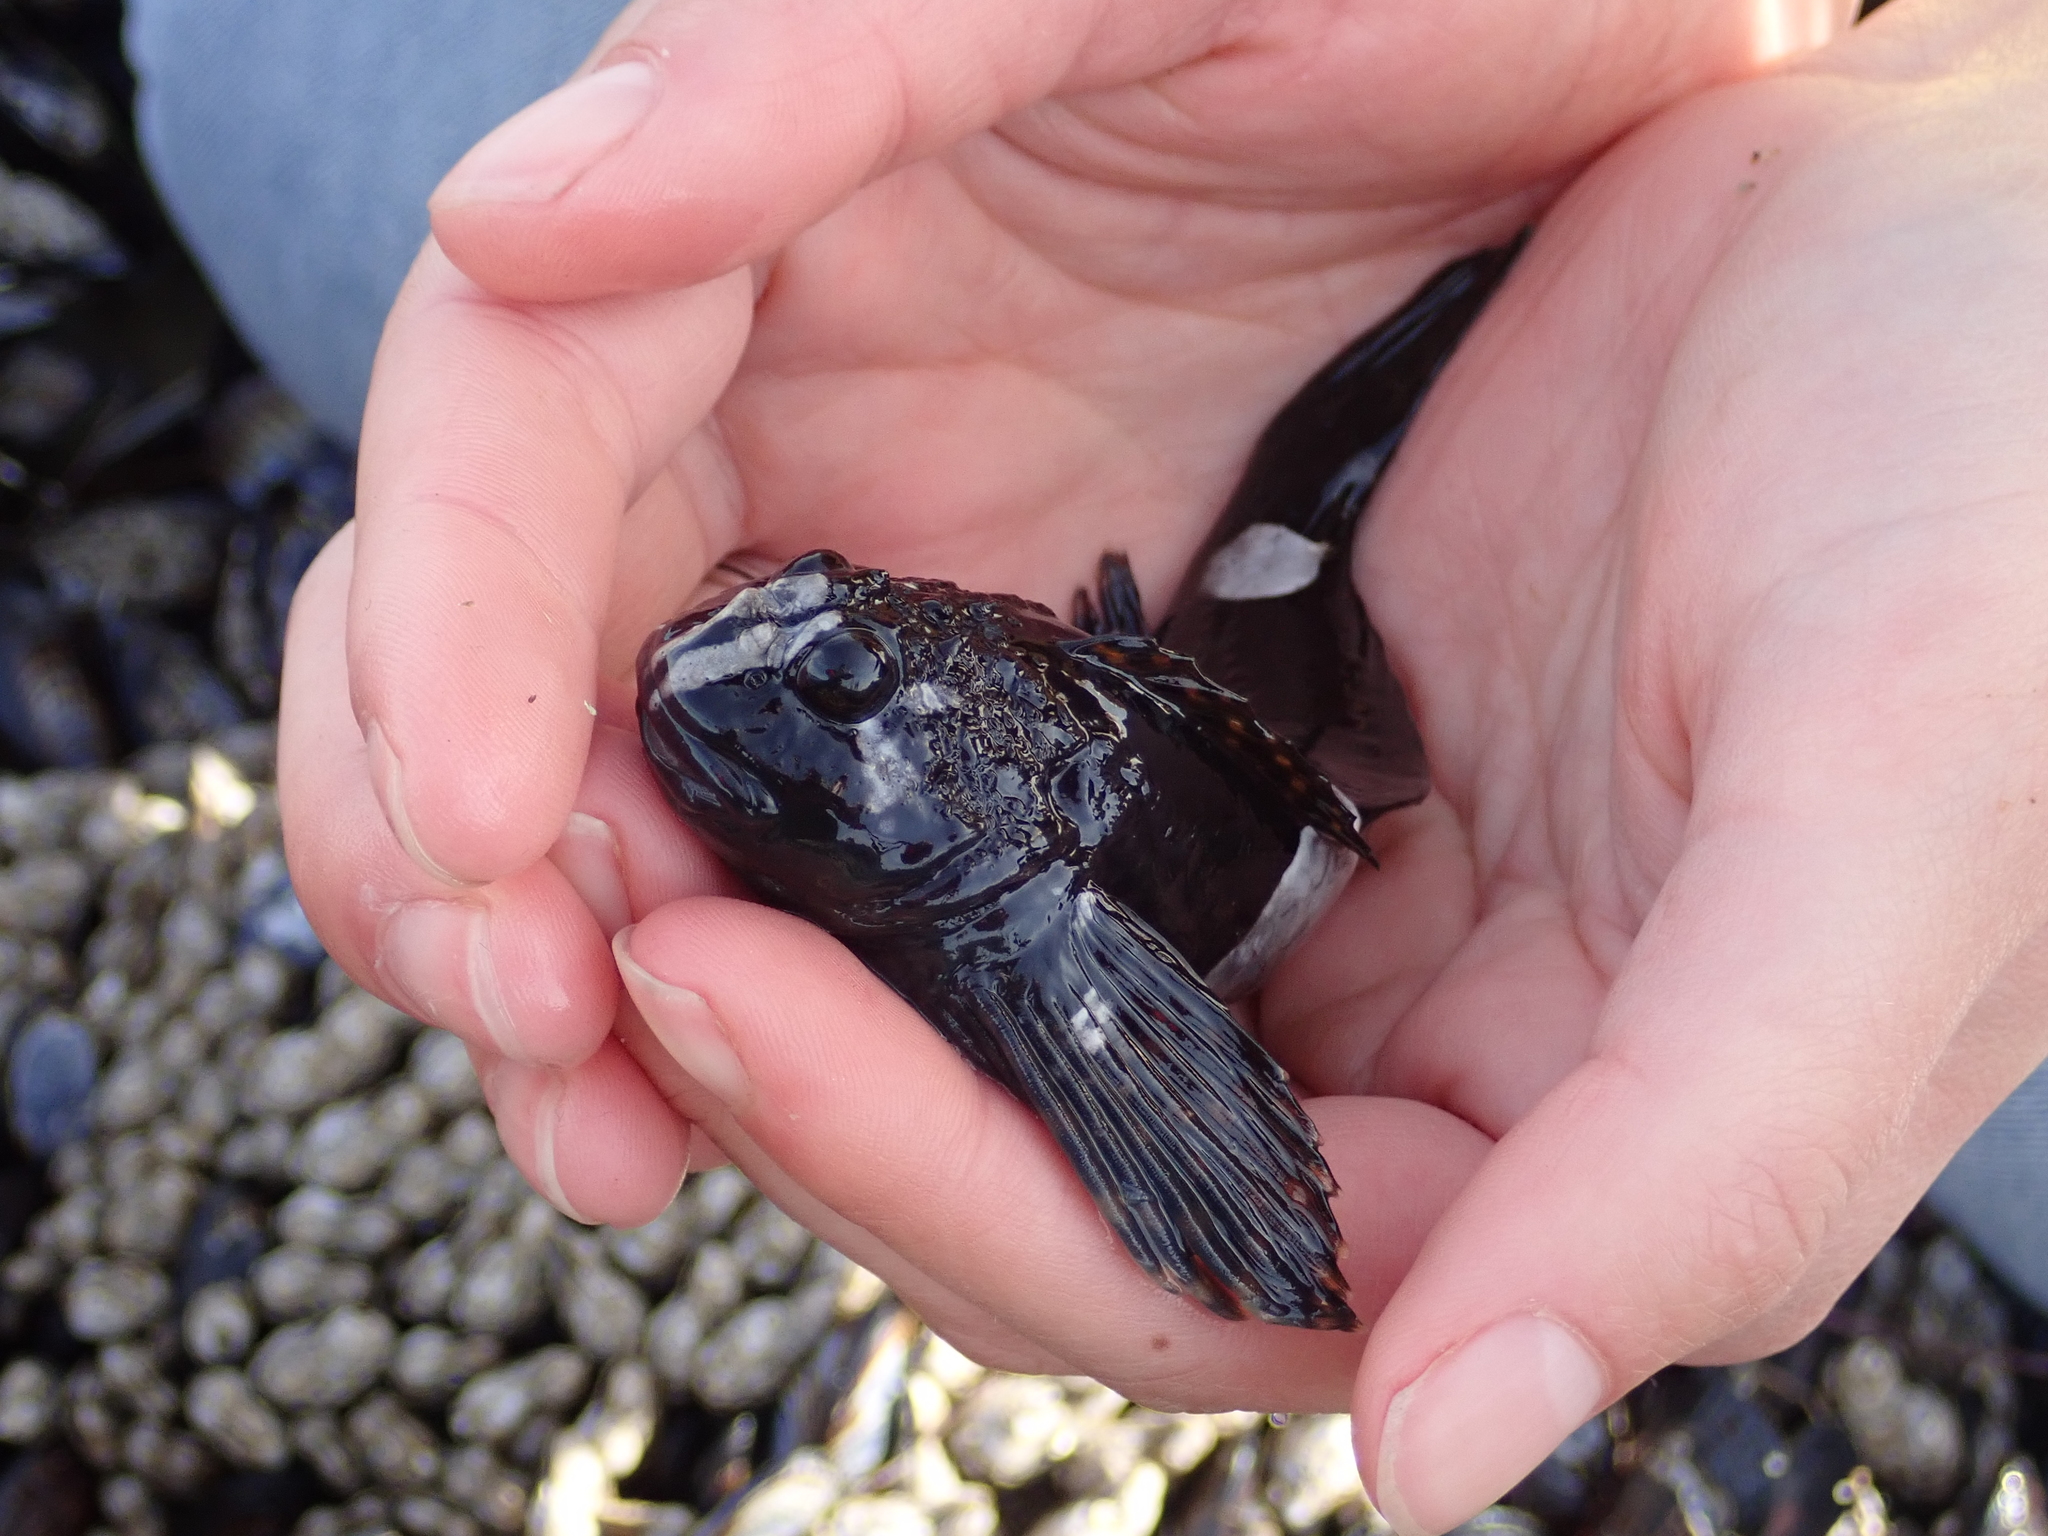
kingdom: Animalia
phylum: Chordata
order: Scorpaeniformes
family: Cottidae
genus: Clinocottus
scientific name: Clinocottus globiceps
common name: Mosshead sculpin
